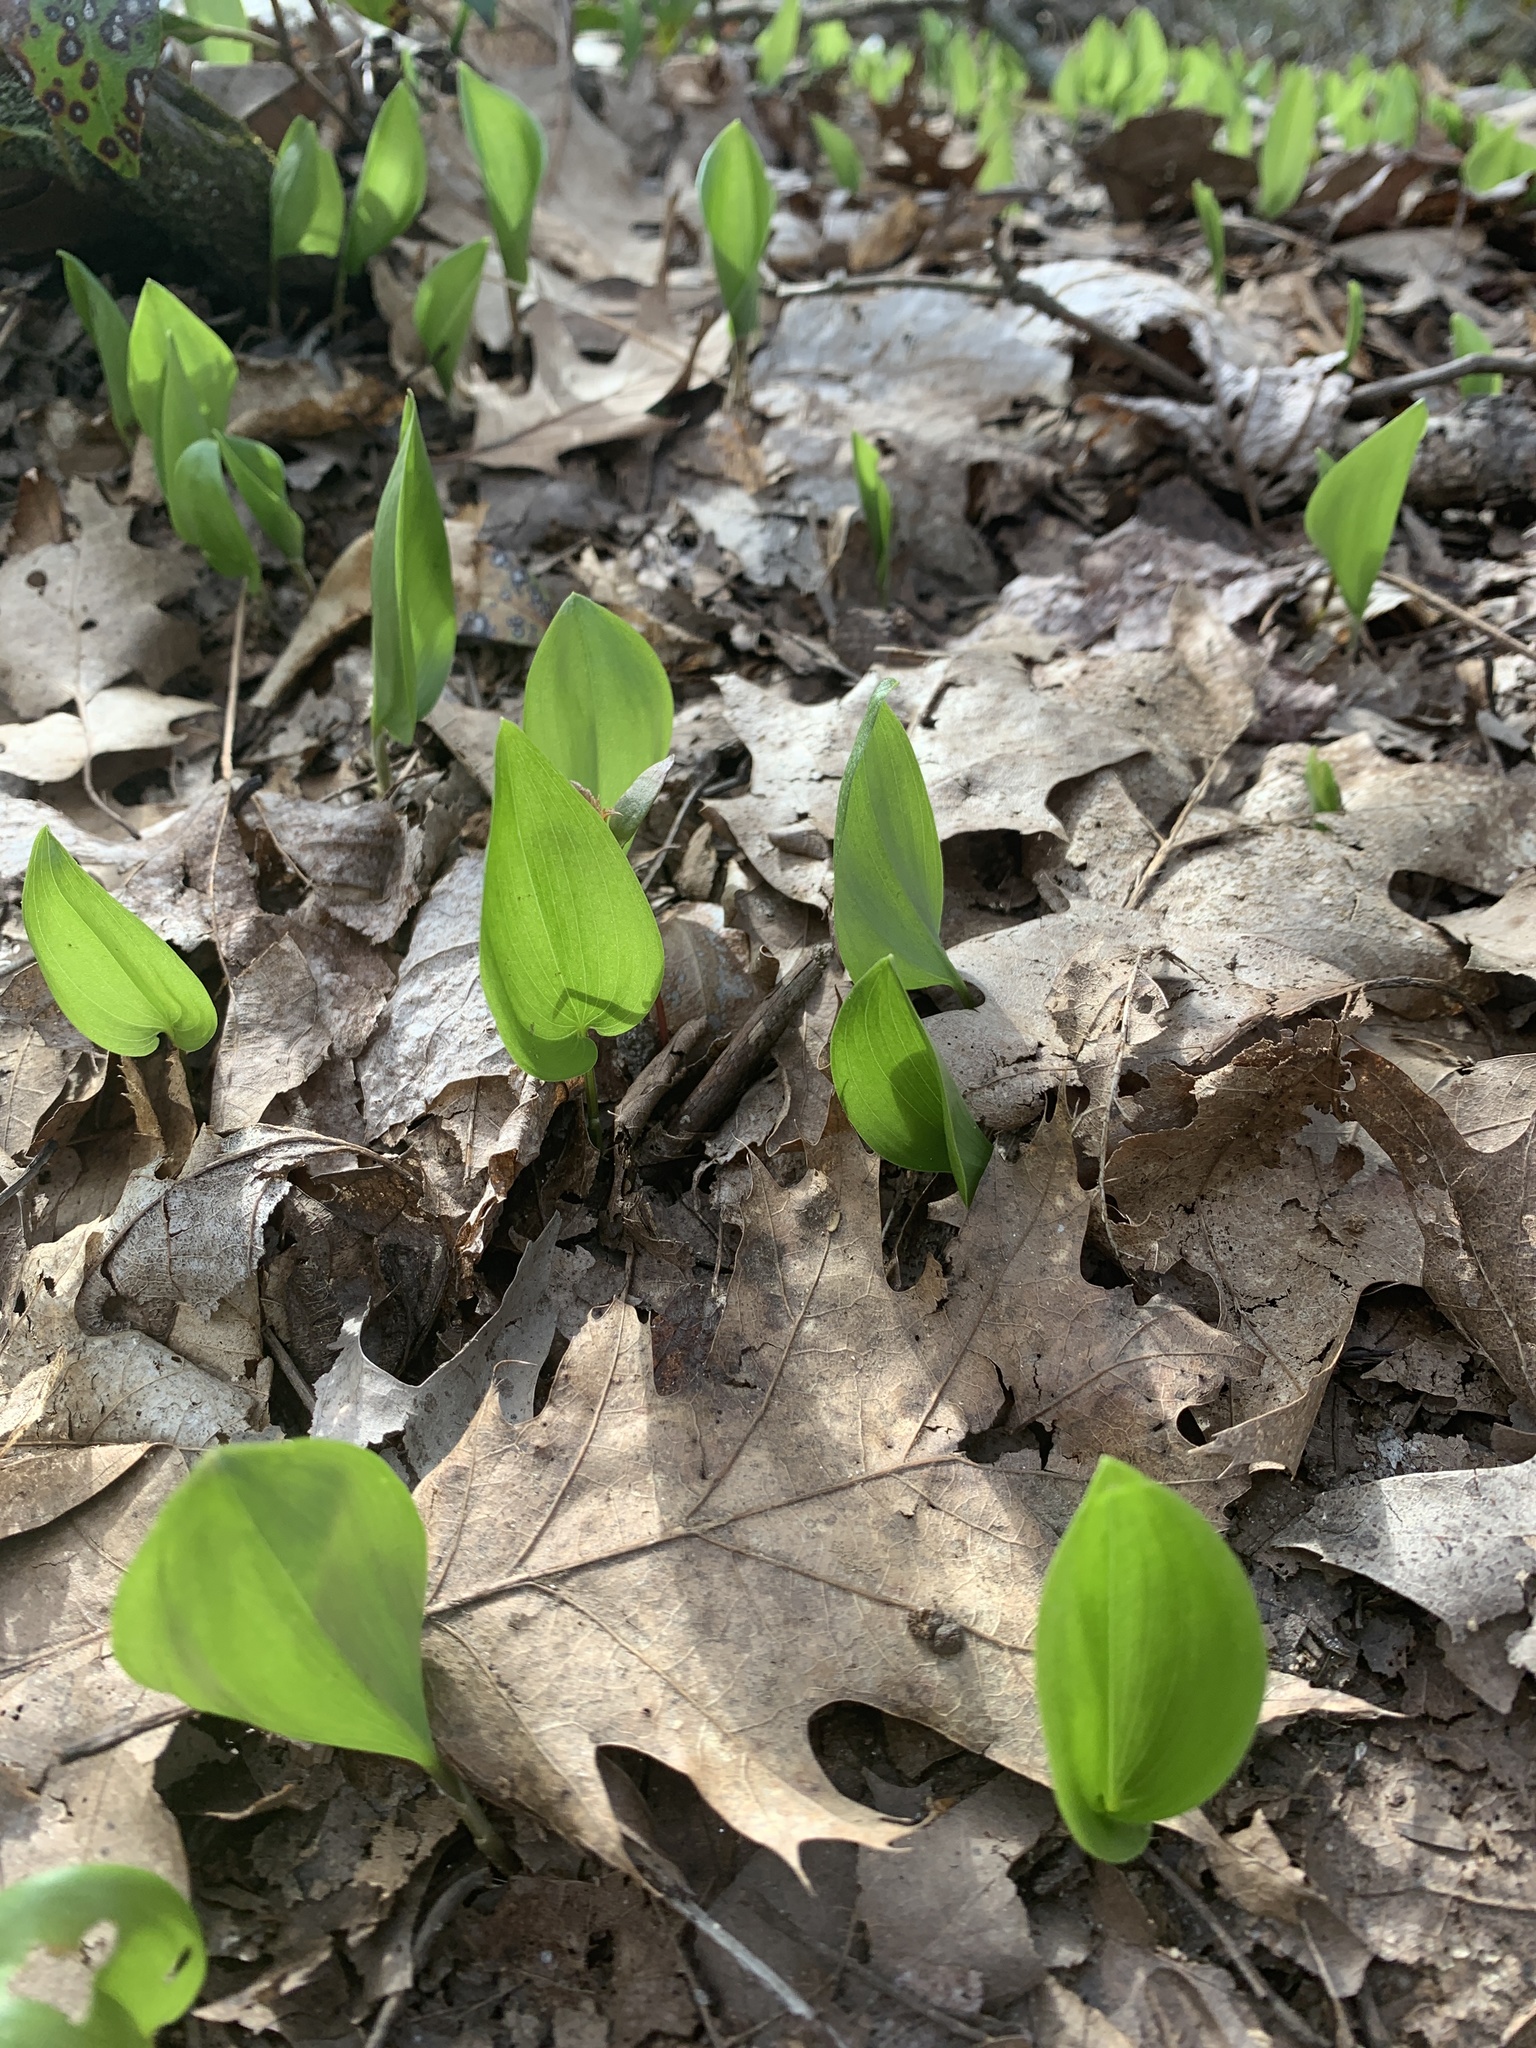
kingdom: Plantae
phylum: Tracheophyta
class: Liliopsida
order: Asparagales
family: Asparagaceae
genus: Maianthemum
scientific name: Maianthemum canadense
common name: False lily-of-the-valley
